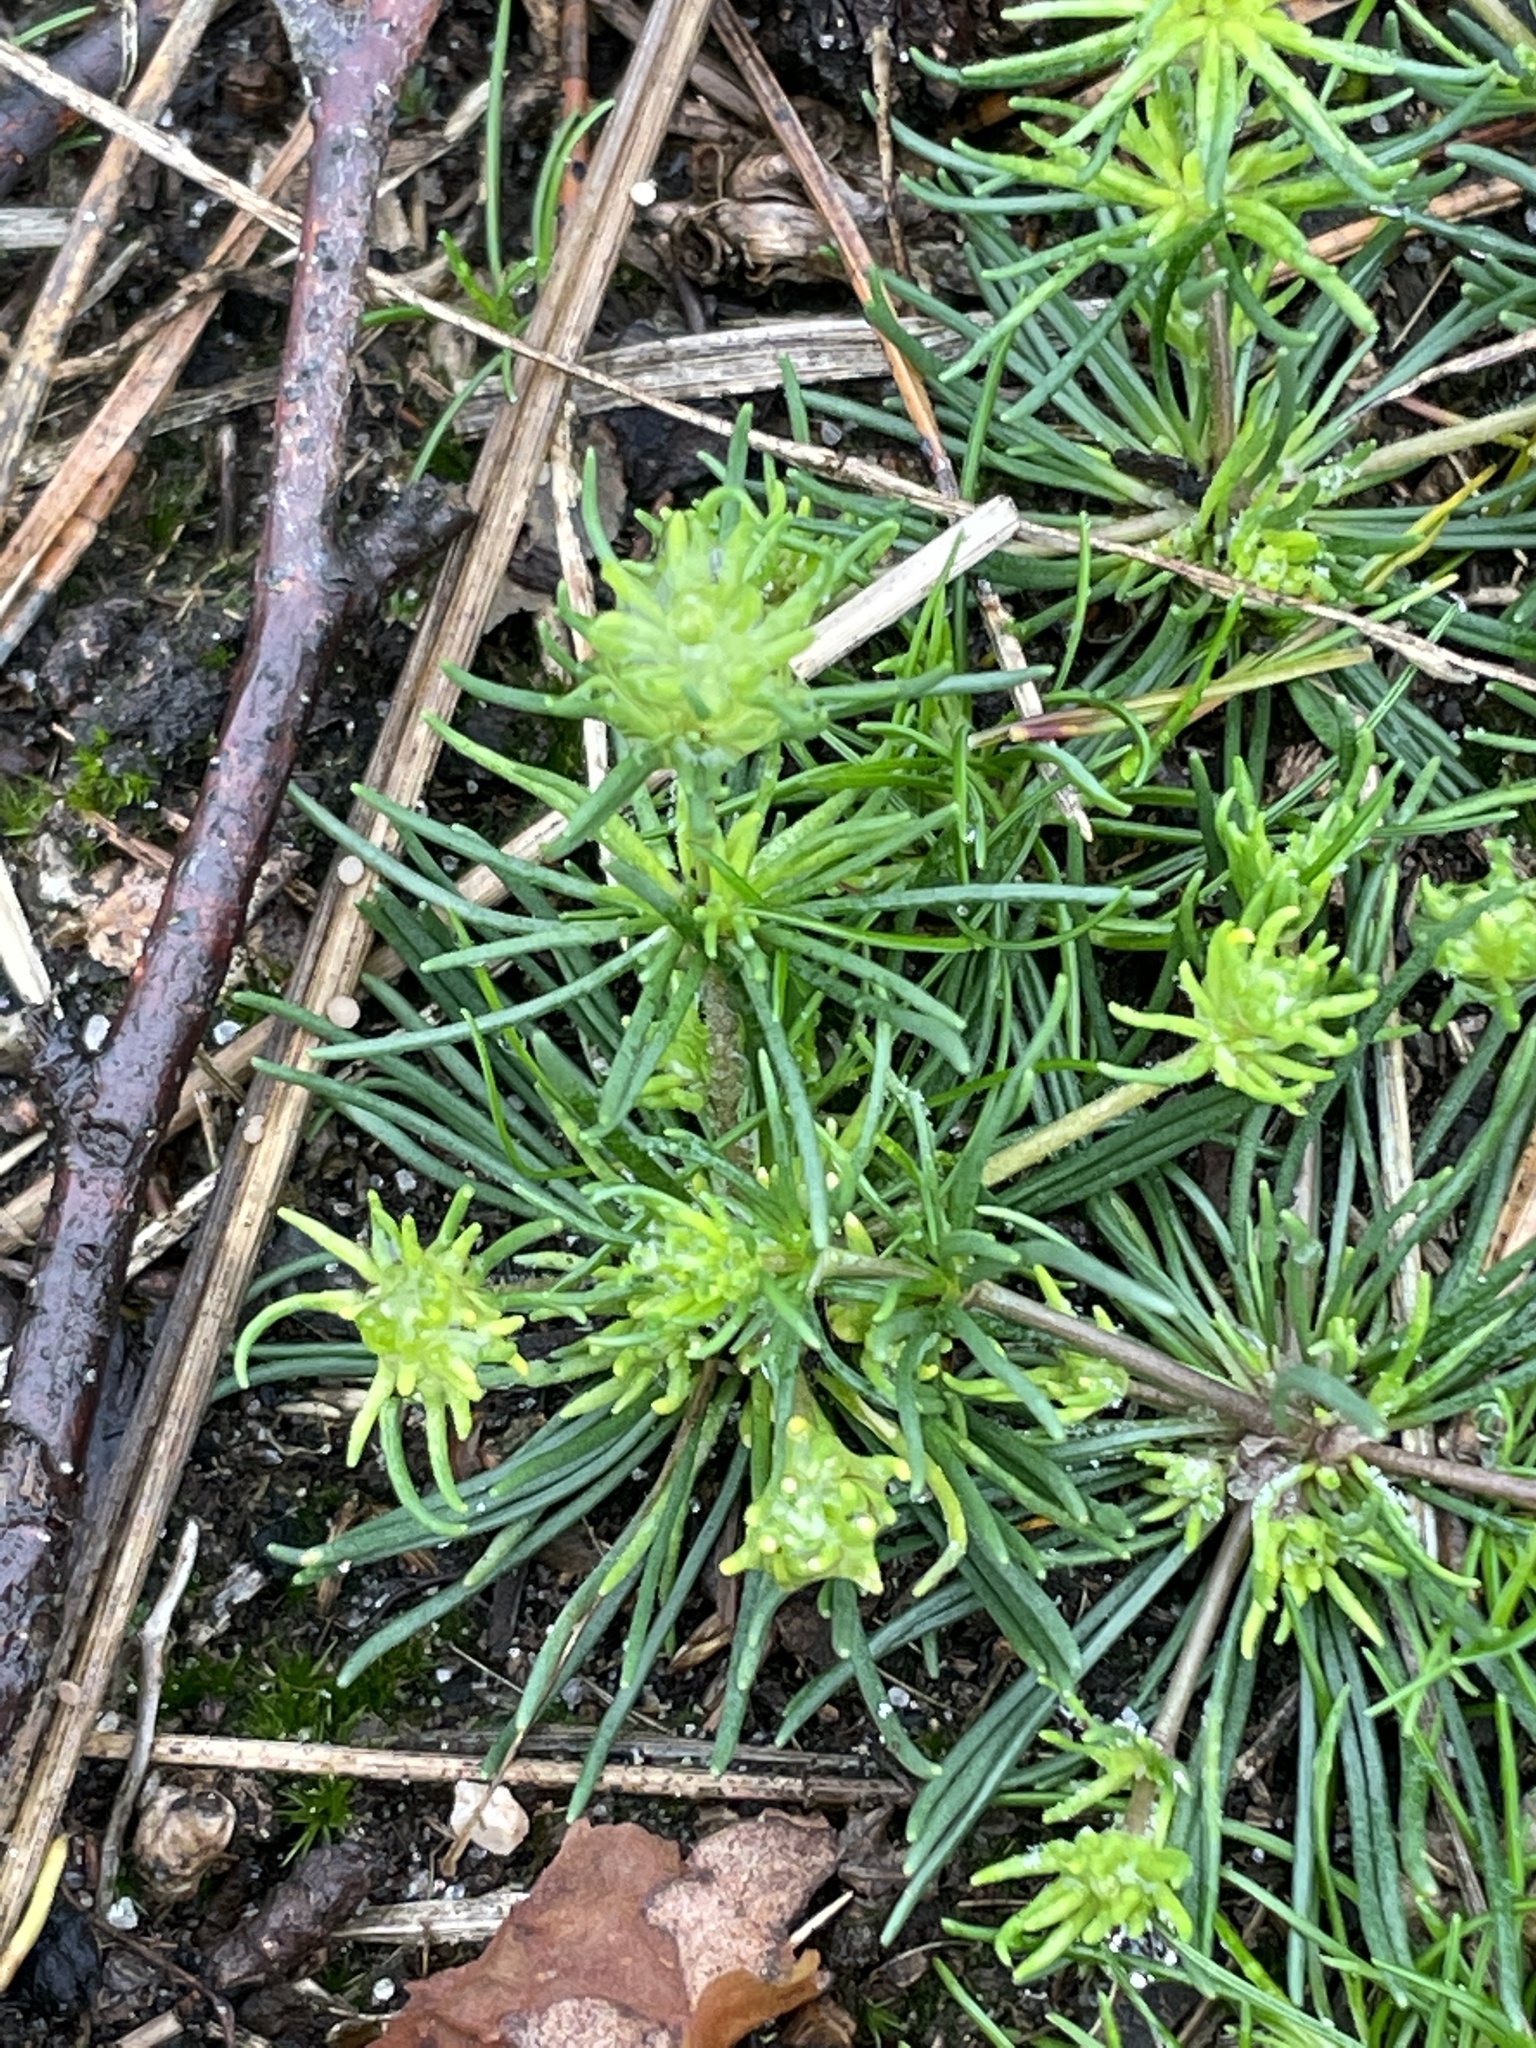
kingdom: Plantae
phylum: Tracheophyta
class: Magnoliopsida
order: Caryophyllales
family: Caryophyllaceae
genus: Spergula
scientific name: Spergula morisonii
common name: Pearlwort spurrey
